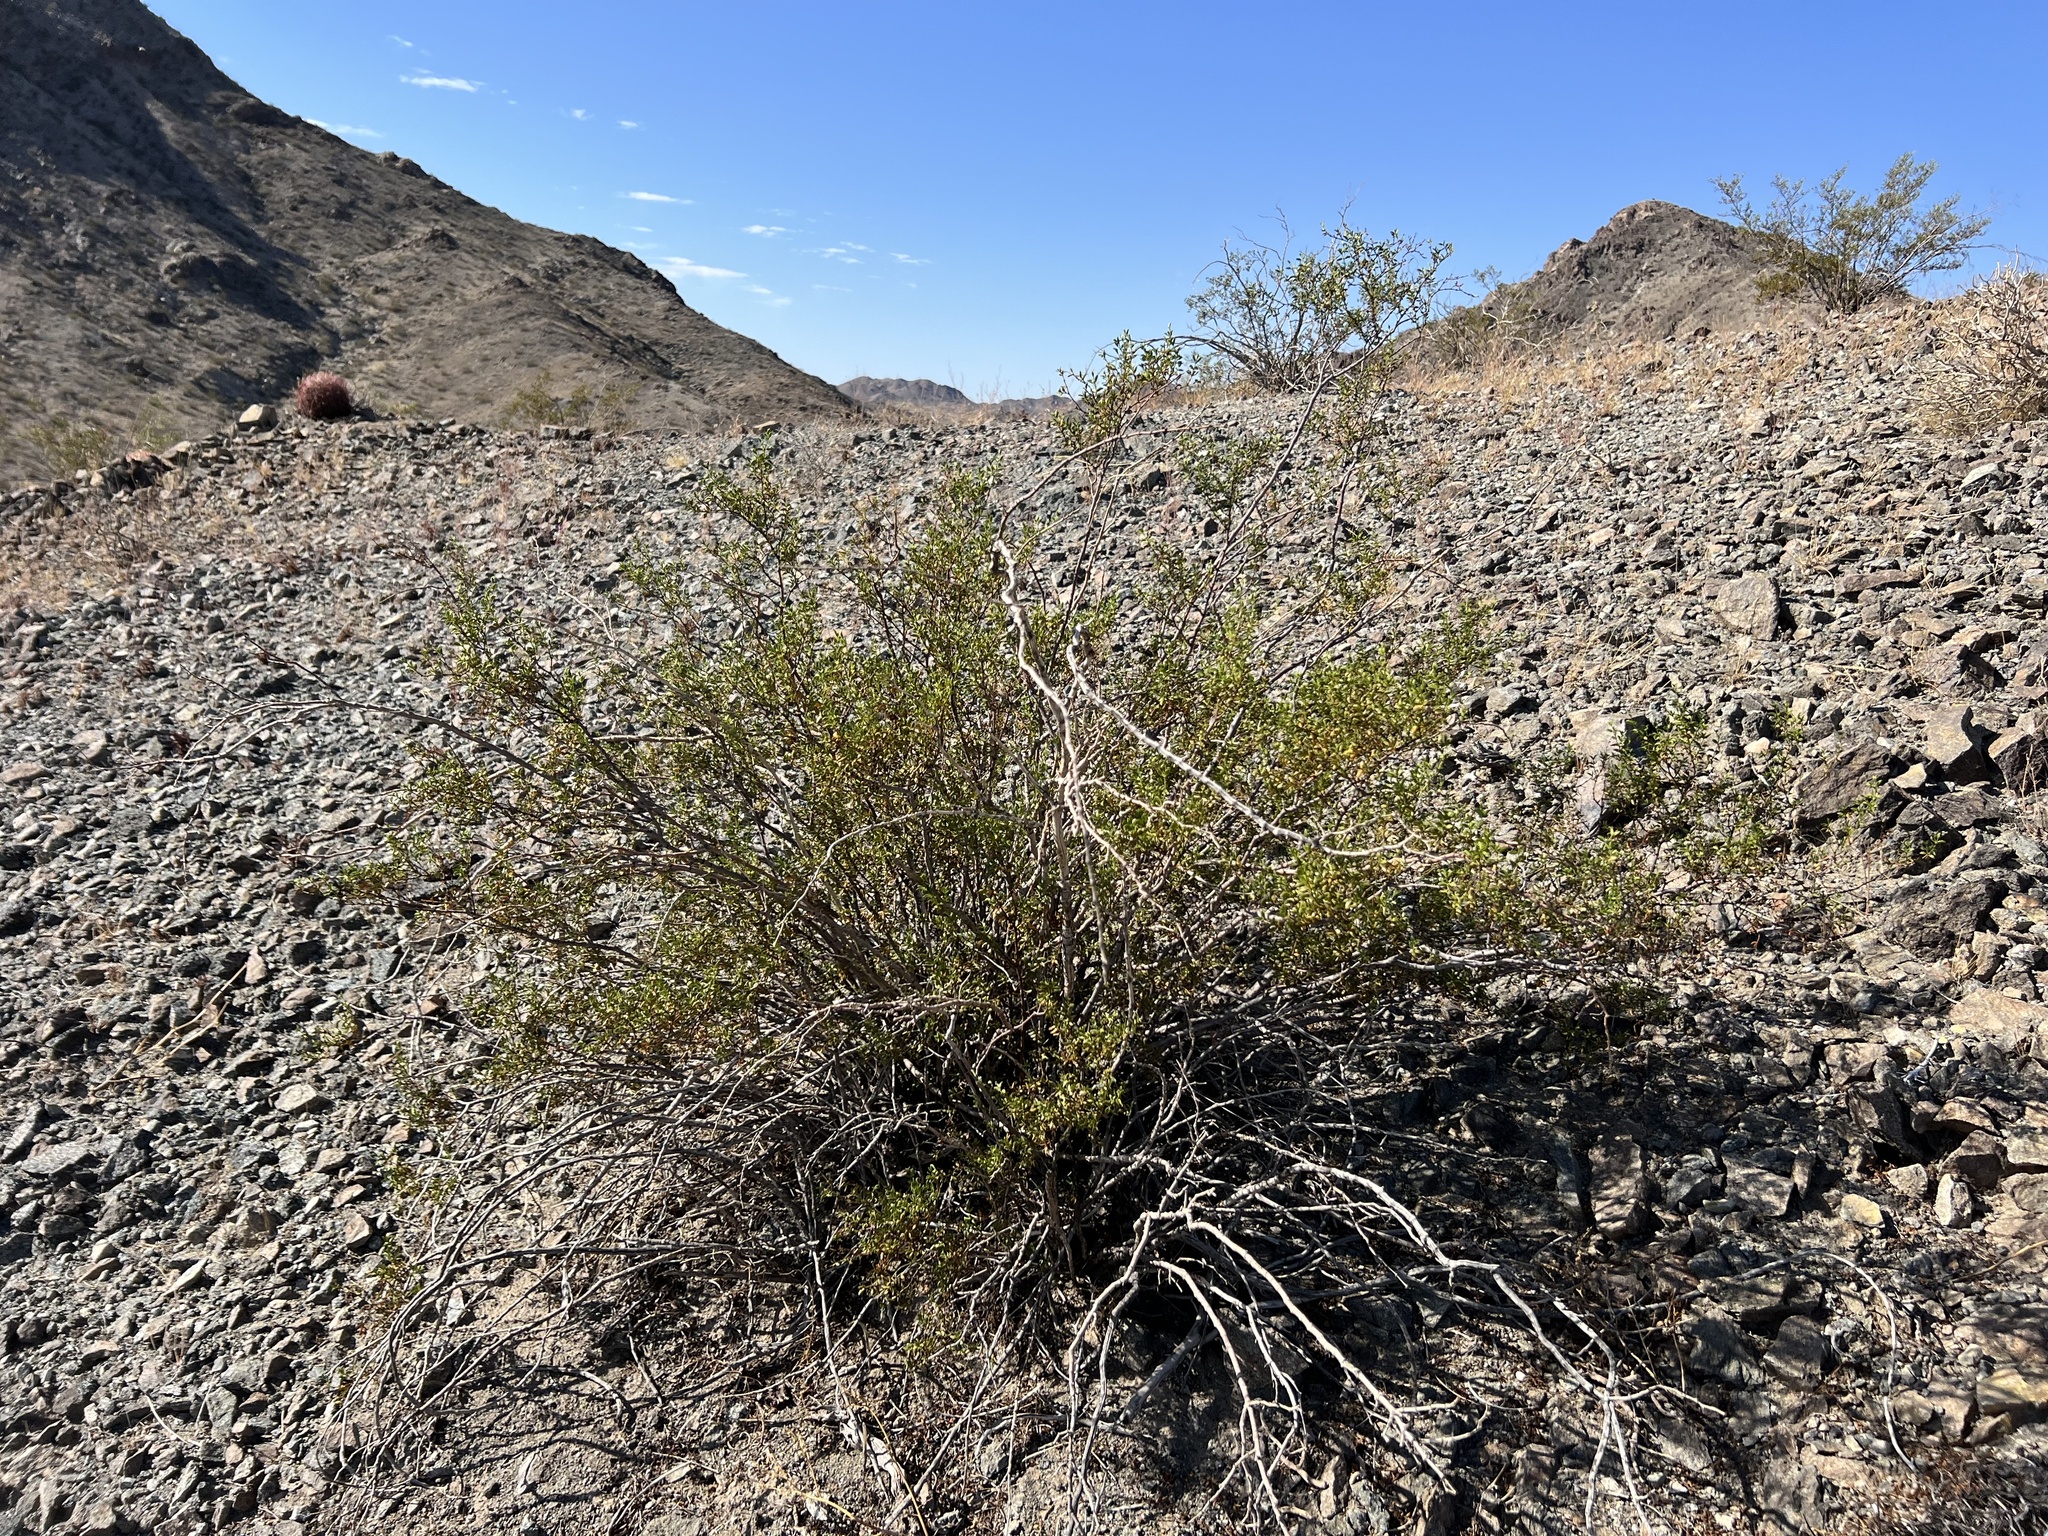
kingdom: Plantae
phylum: Tracheophyta
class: Magnoliopsida
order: Zygophyllales
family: Zygophyllaceae
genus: Larrea
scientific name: Larrea tridentata
